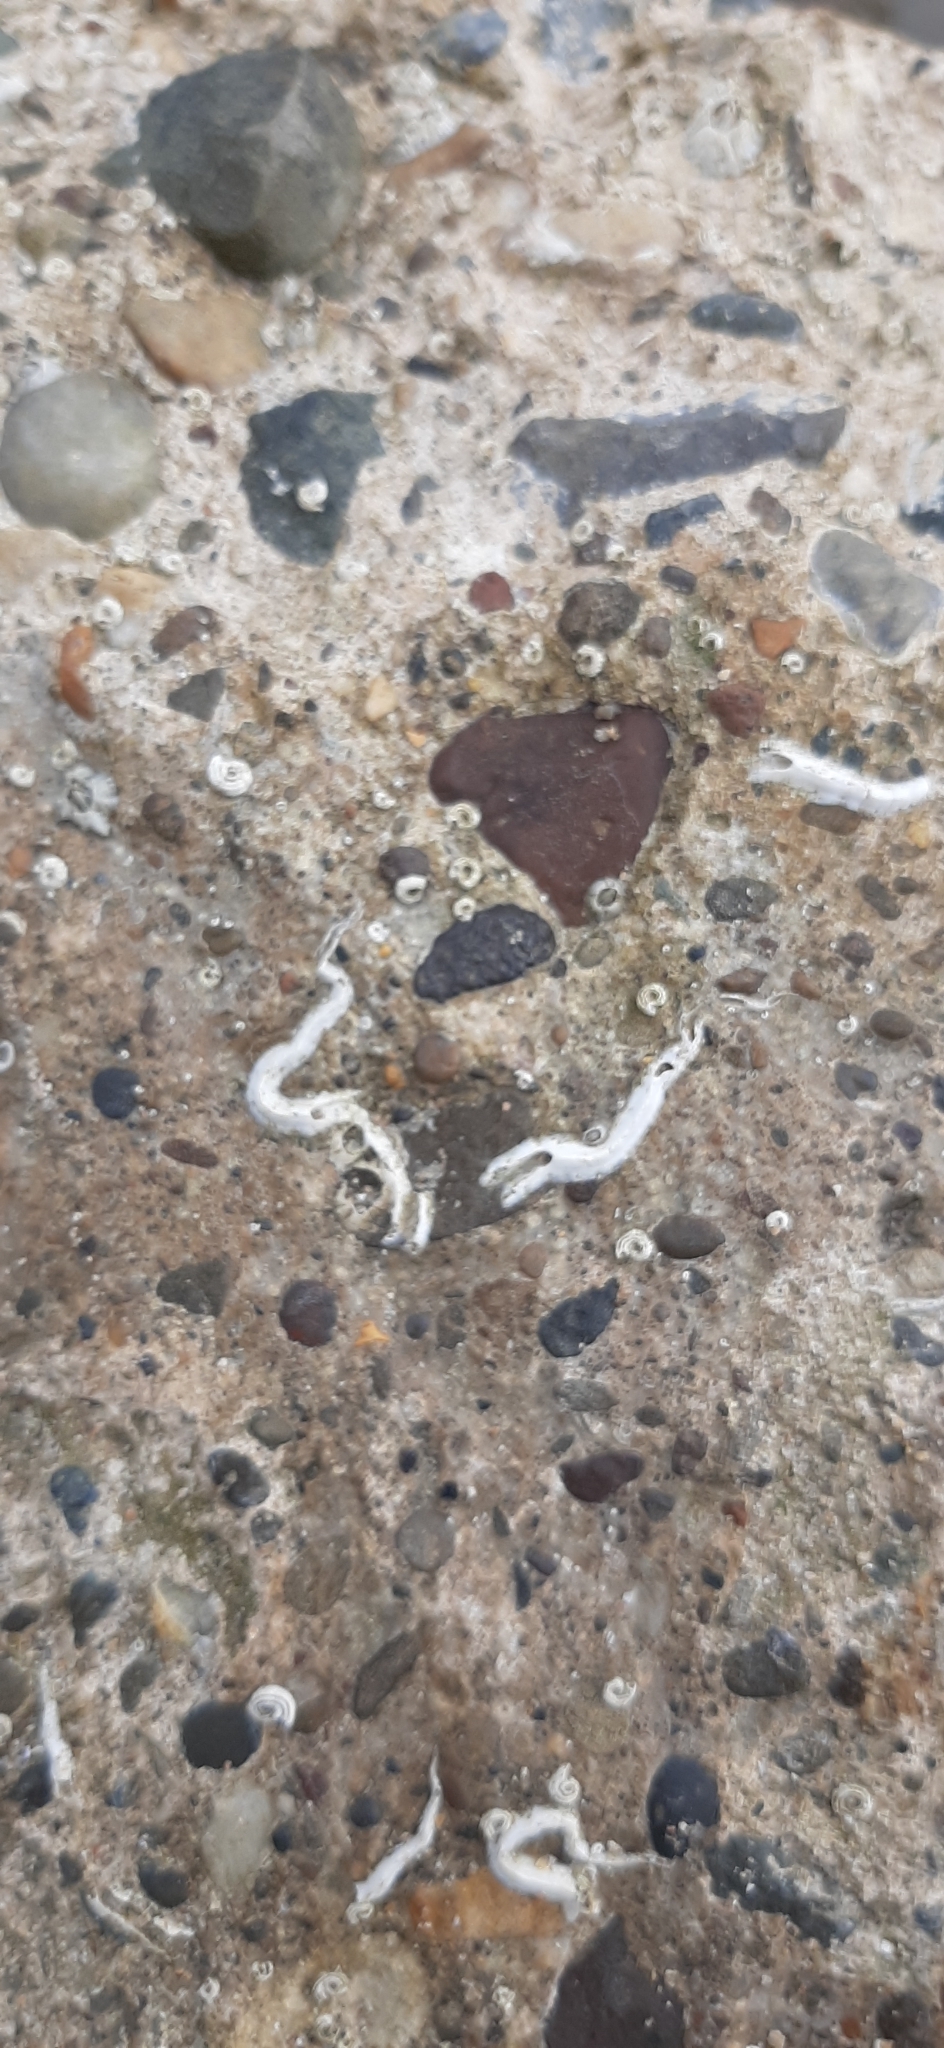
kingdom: Animalia
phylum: Annelida
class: Polychaeta
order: Sabellida
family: Serpulidae
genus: Spirobranchus
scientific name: Spirobranchus triqueter
